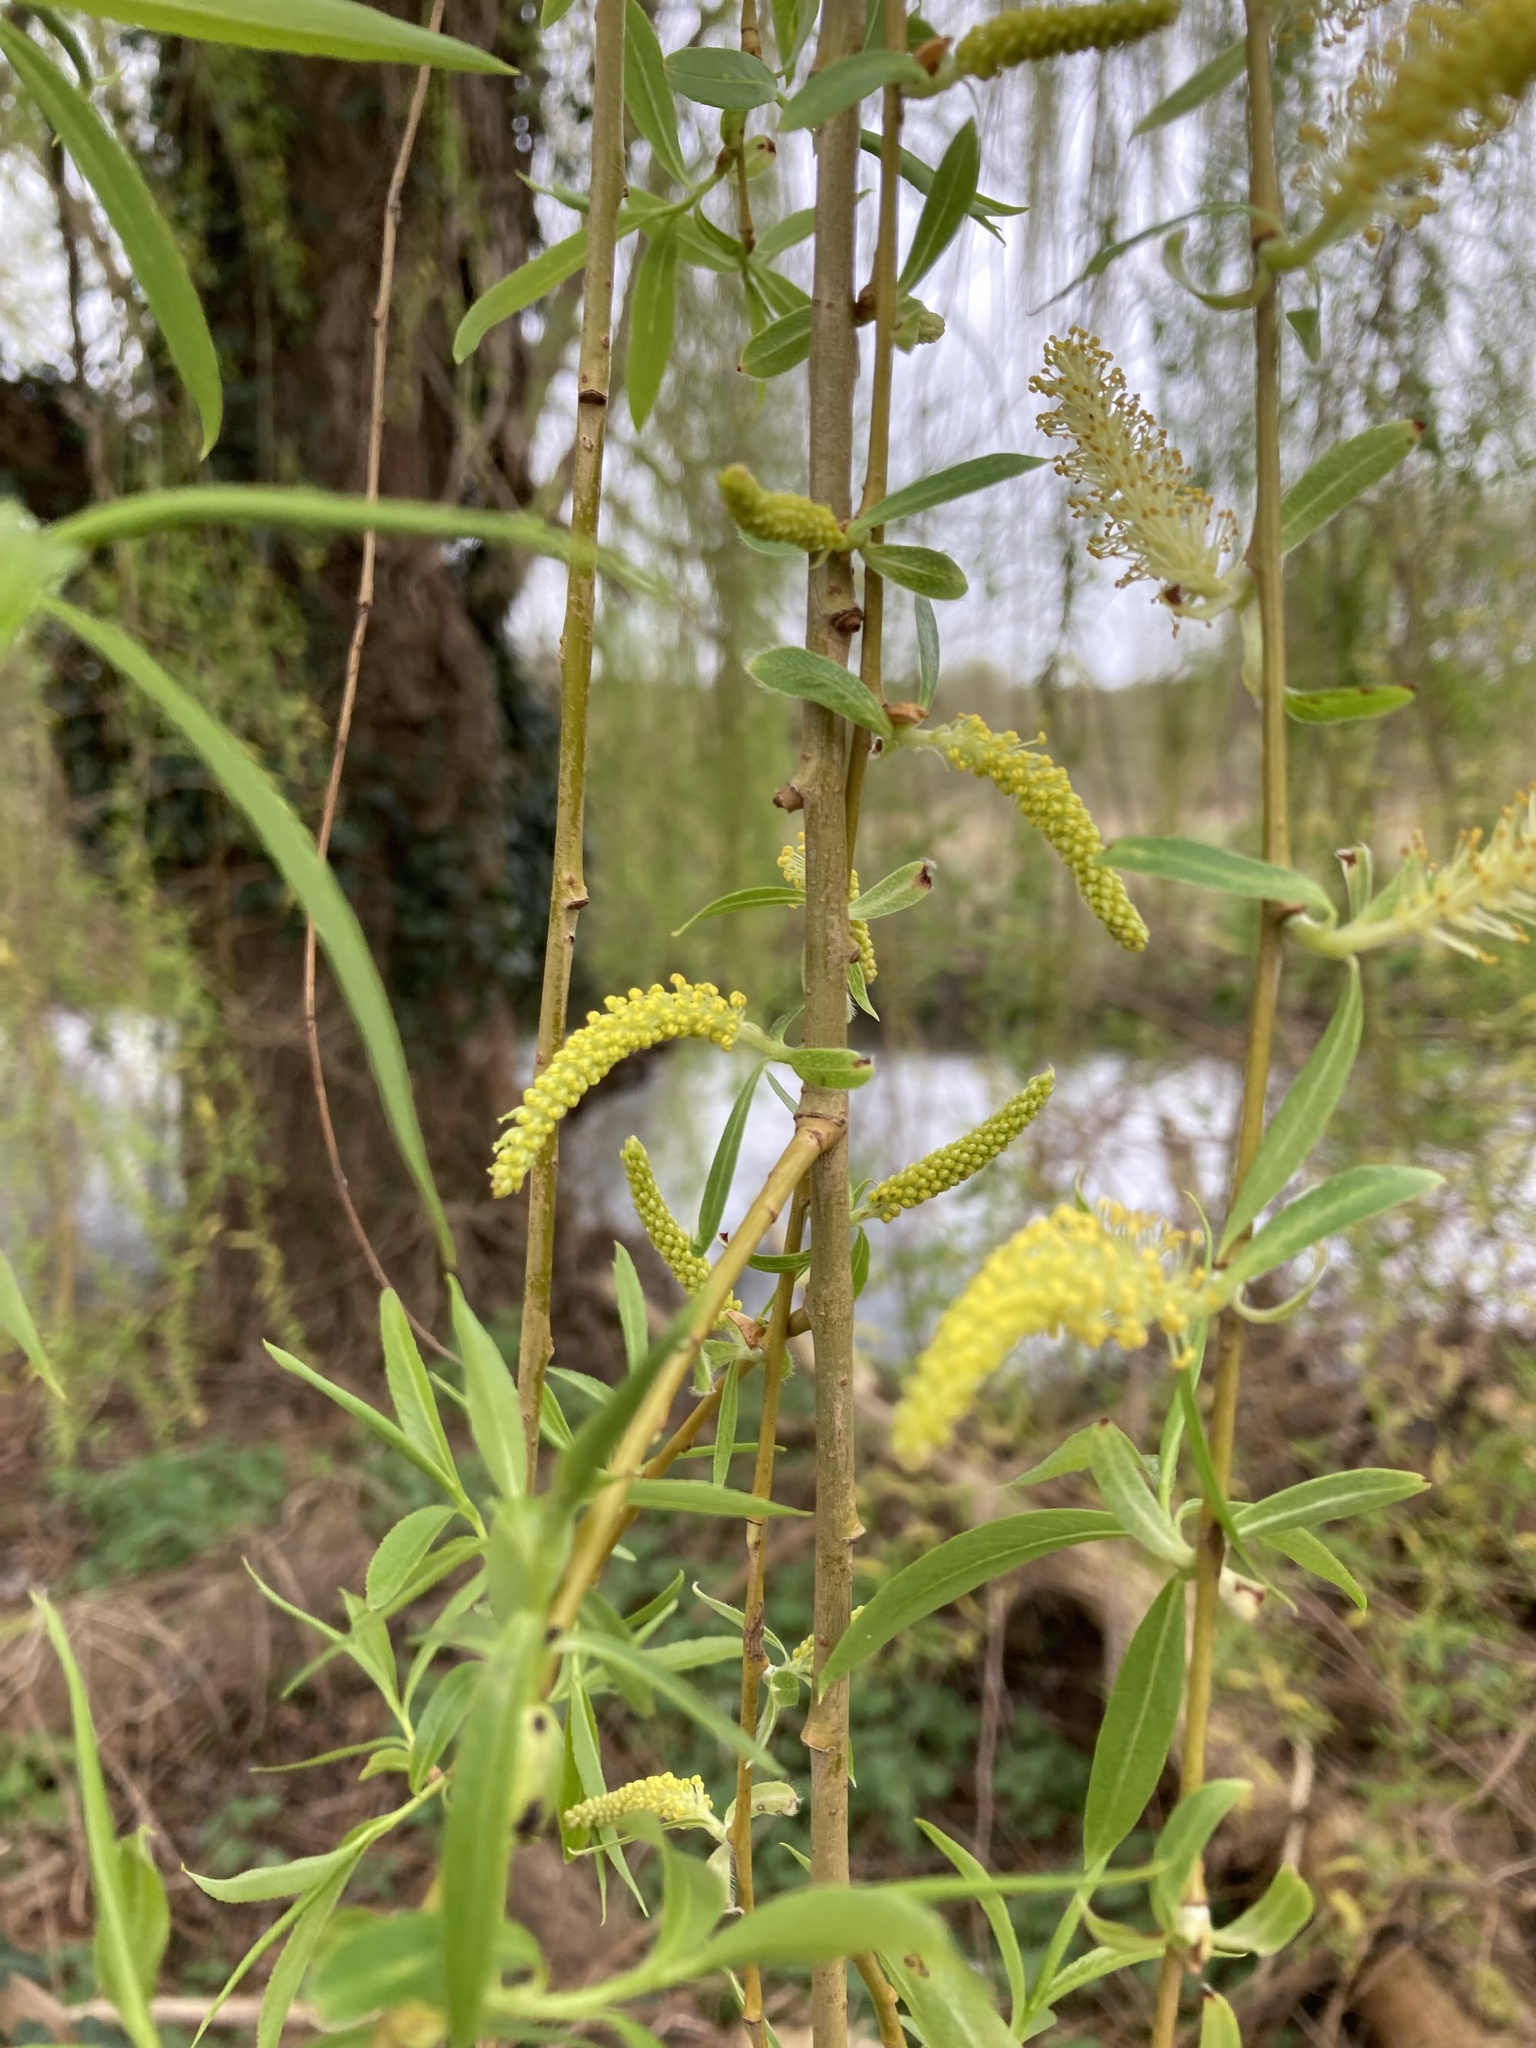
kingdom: Plantae
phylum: Tracheophyta
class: Magnoliopsida
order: Malpighiales
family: Salicaceae
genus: Salix
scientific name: Salix pendulina
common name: Wisconsin weeping willow
